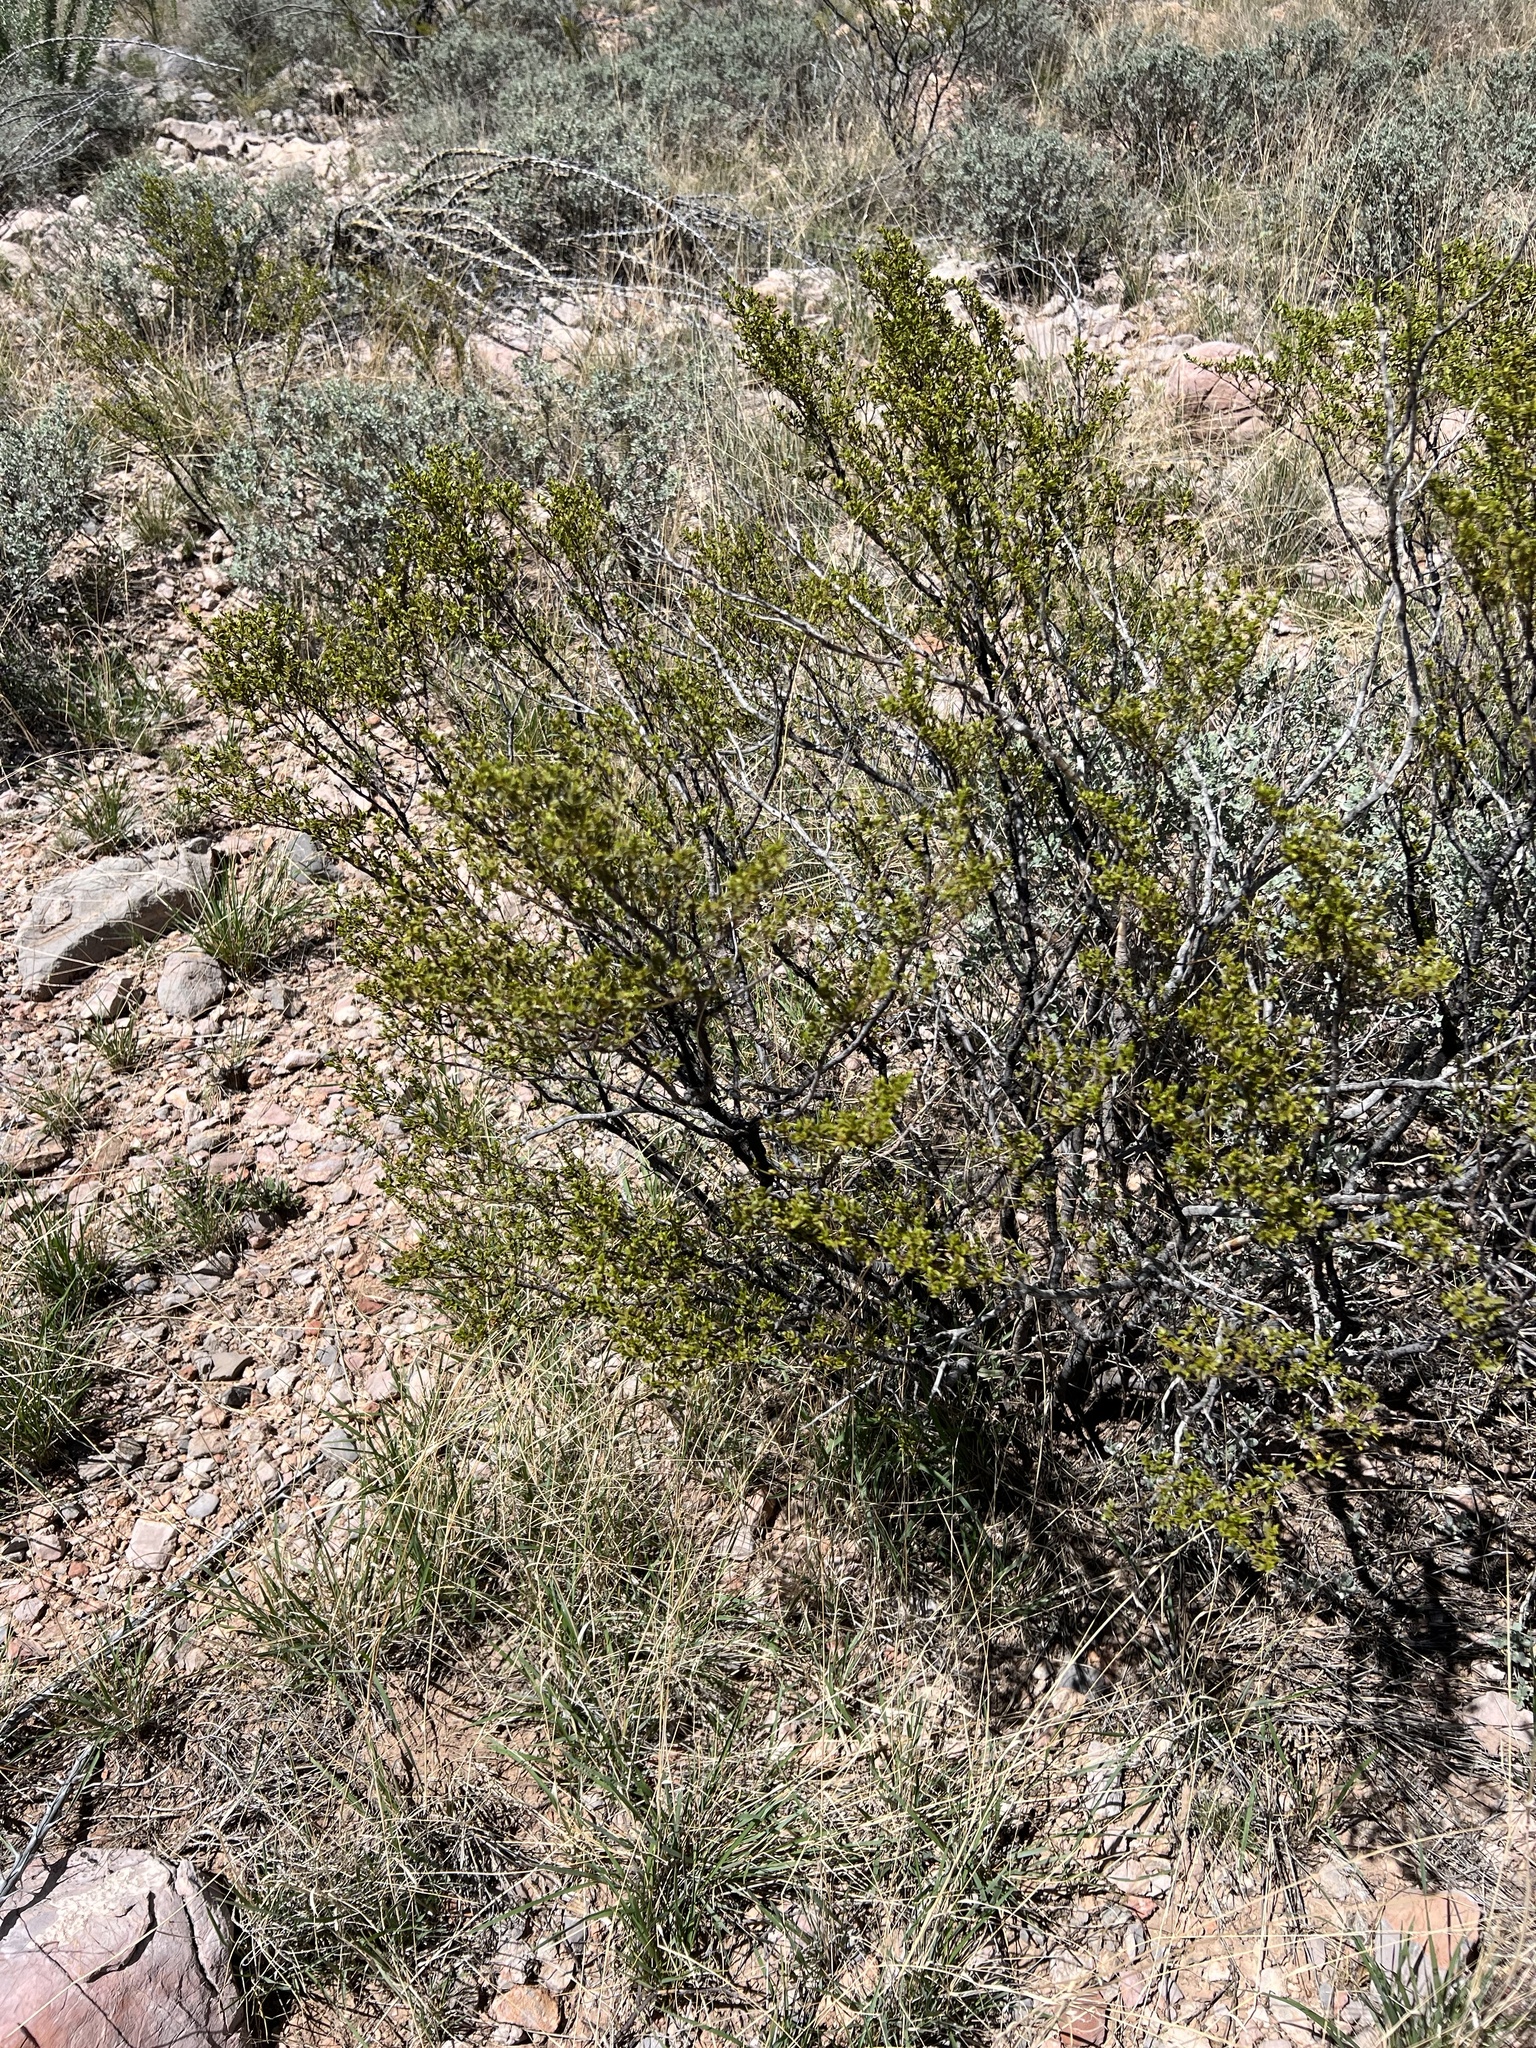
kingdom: Plantae
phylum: Tracheophyta
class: Magnoliopsida
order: Zygophyllales
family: Zygophyllaceae
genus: Larrea
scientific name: Larrea tridentata
